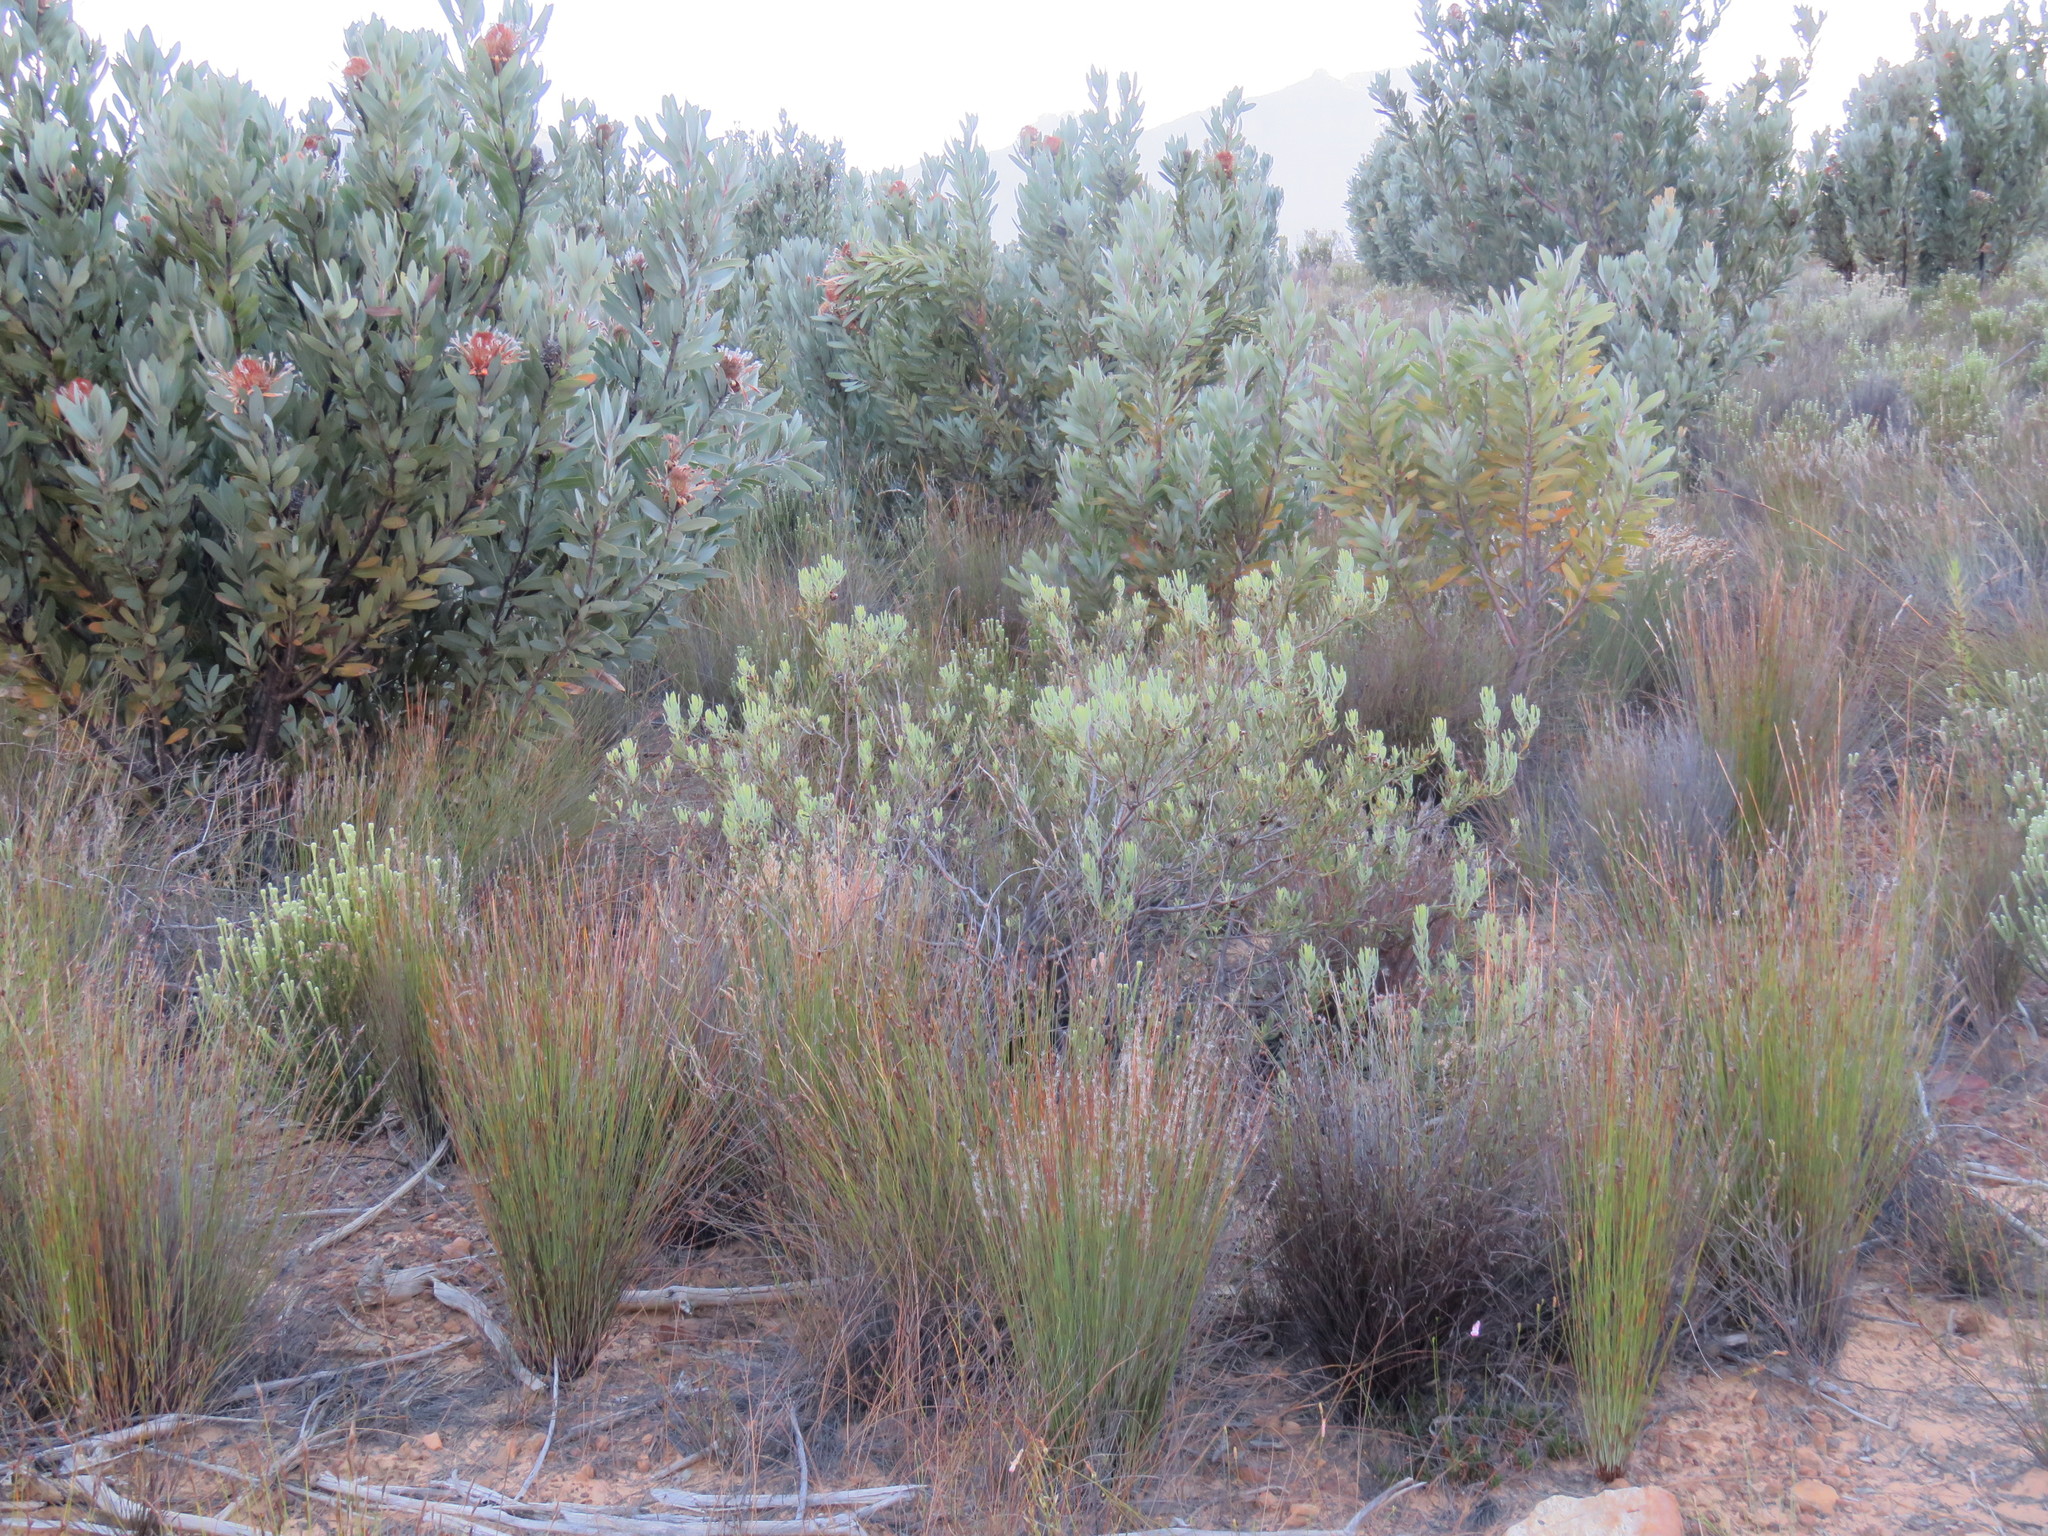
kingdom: Plantae
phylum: Tracheophyta
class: Magnoliopsida
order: Proteales
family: Proteaceae
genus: Leucadendron
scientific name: Leucadendron glaberrimum
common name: Common oily conebush
